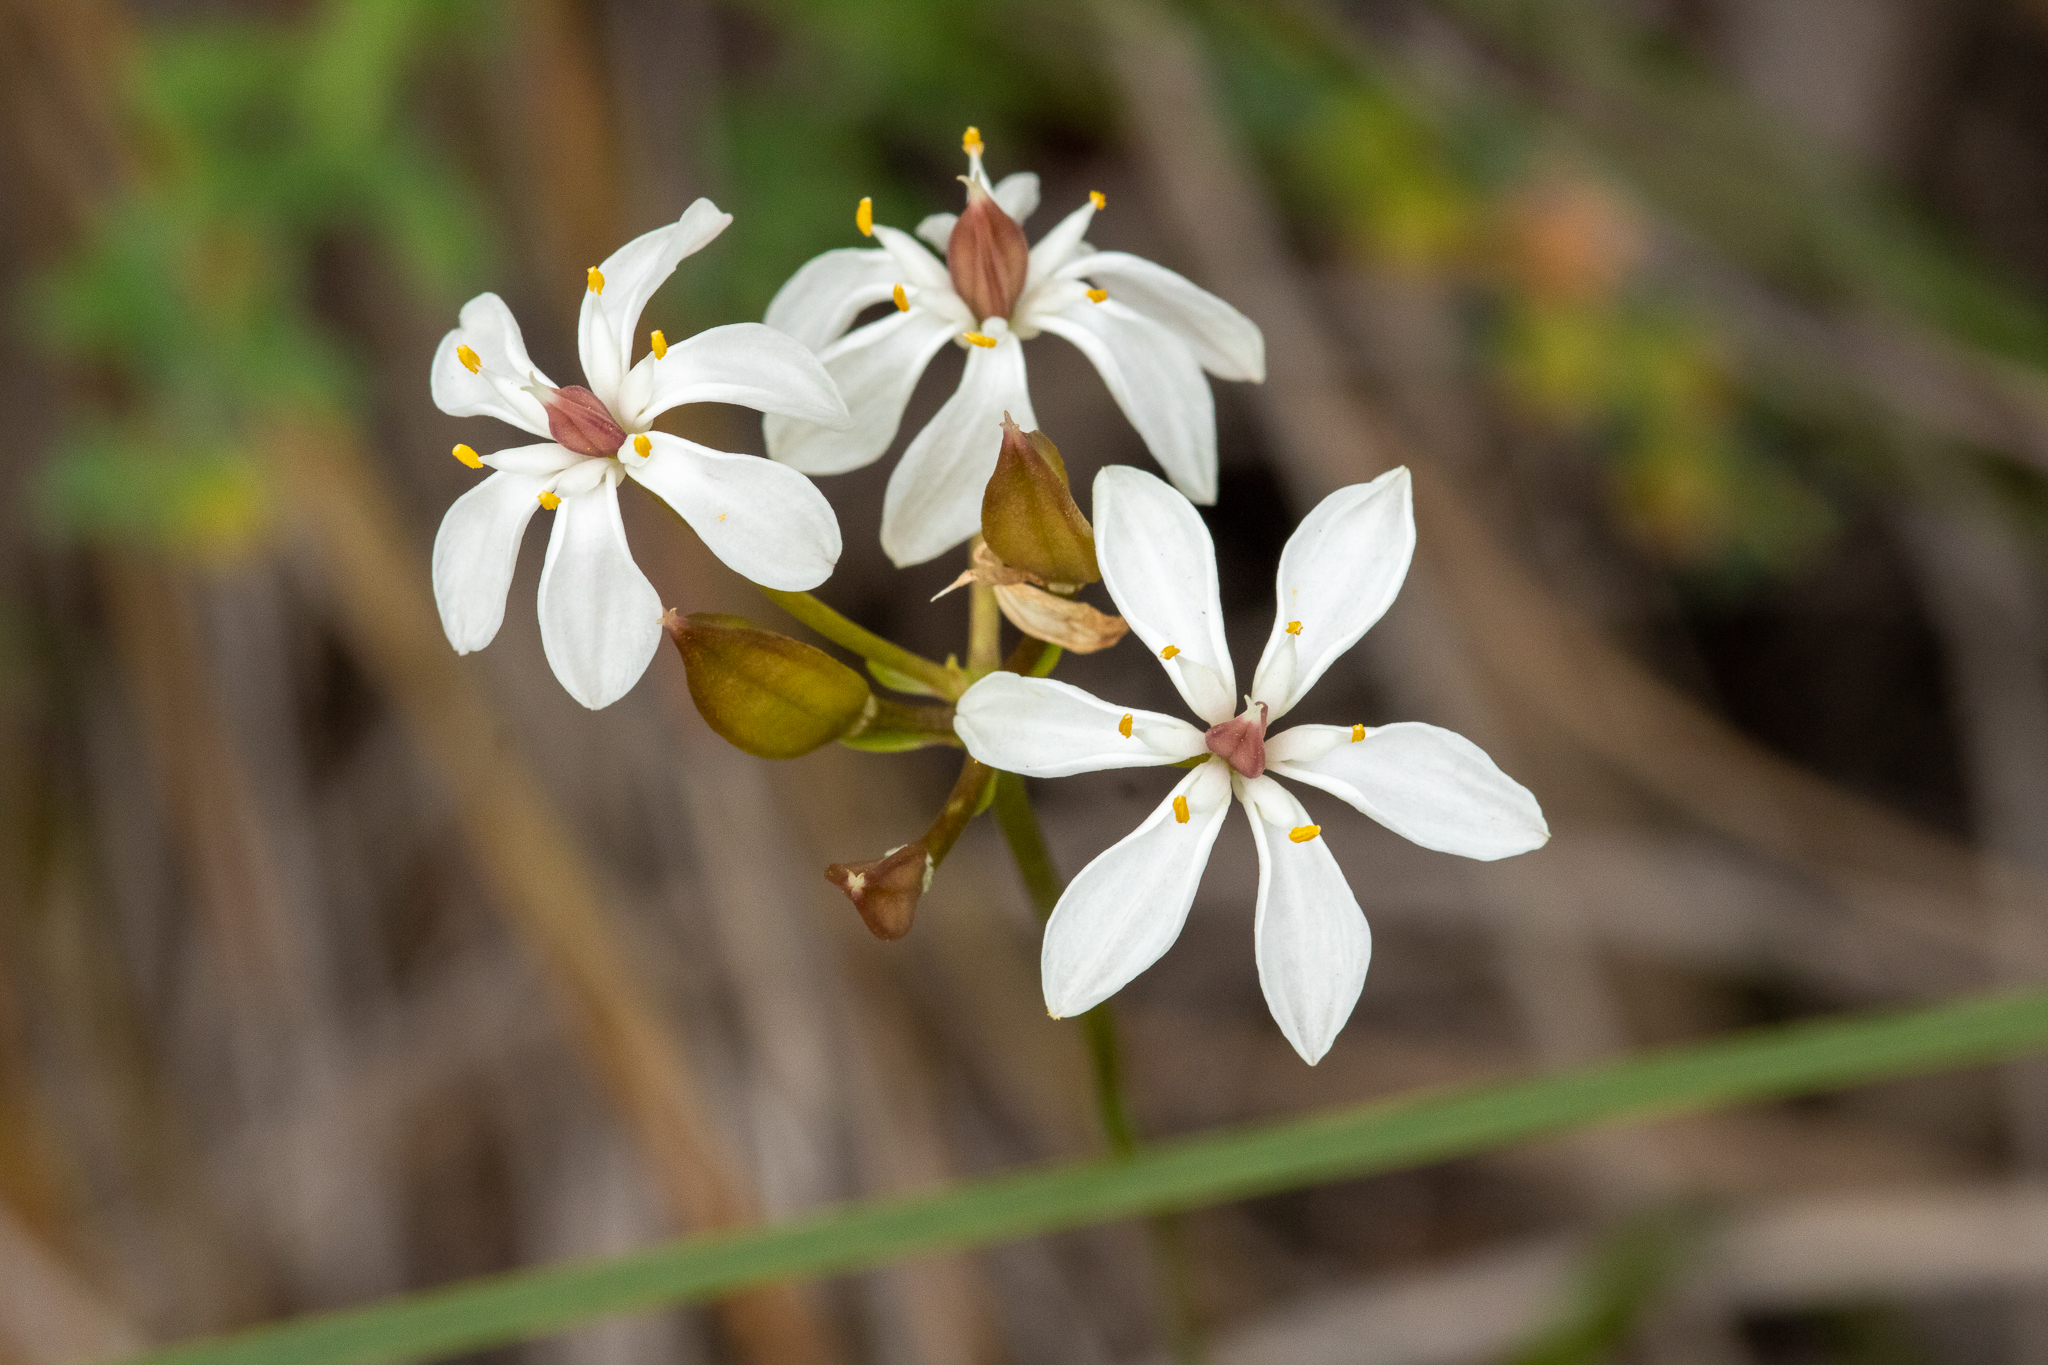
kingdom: Plantae
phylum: Tracheophyta
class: Liliopsida
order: Liliales
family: Colchicaceae
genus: Burchardia
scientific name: Burchardia congesta
